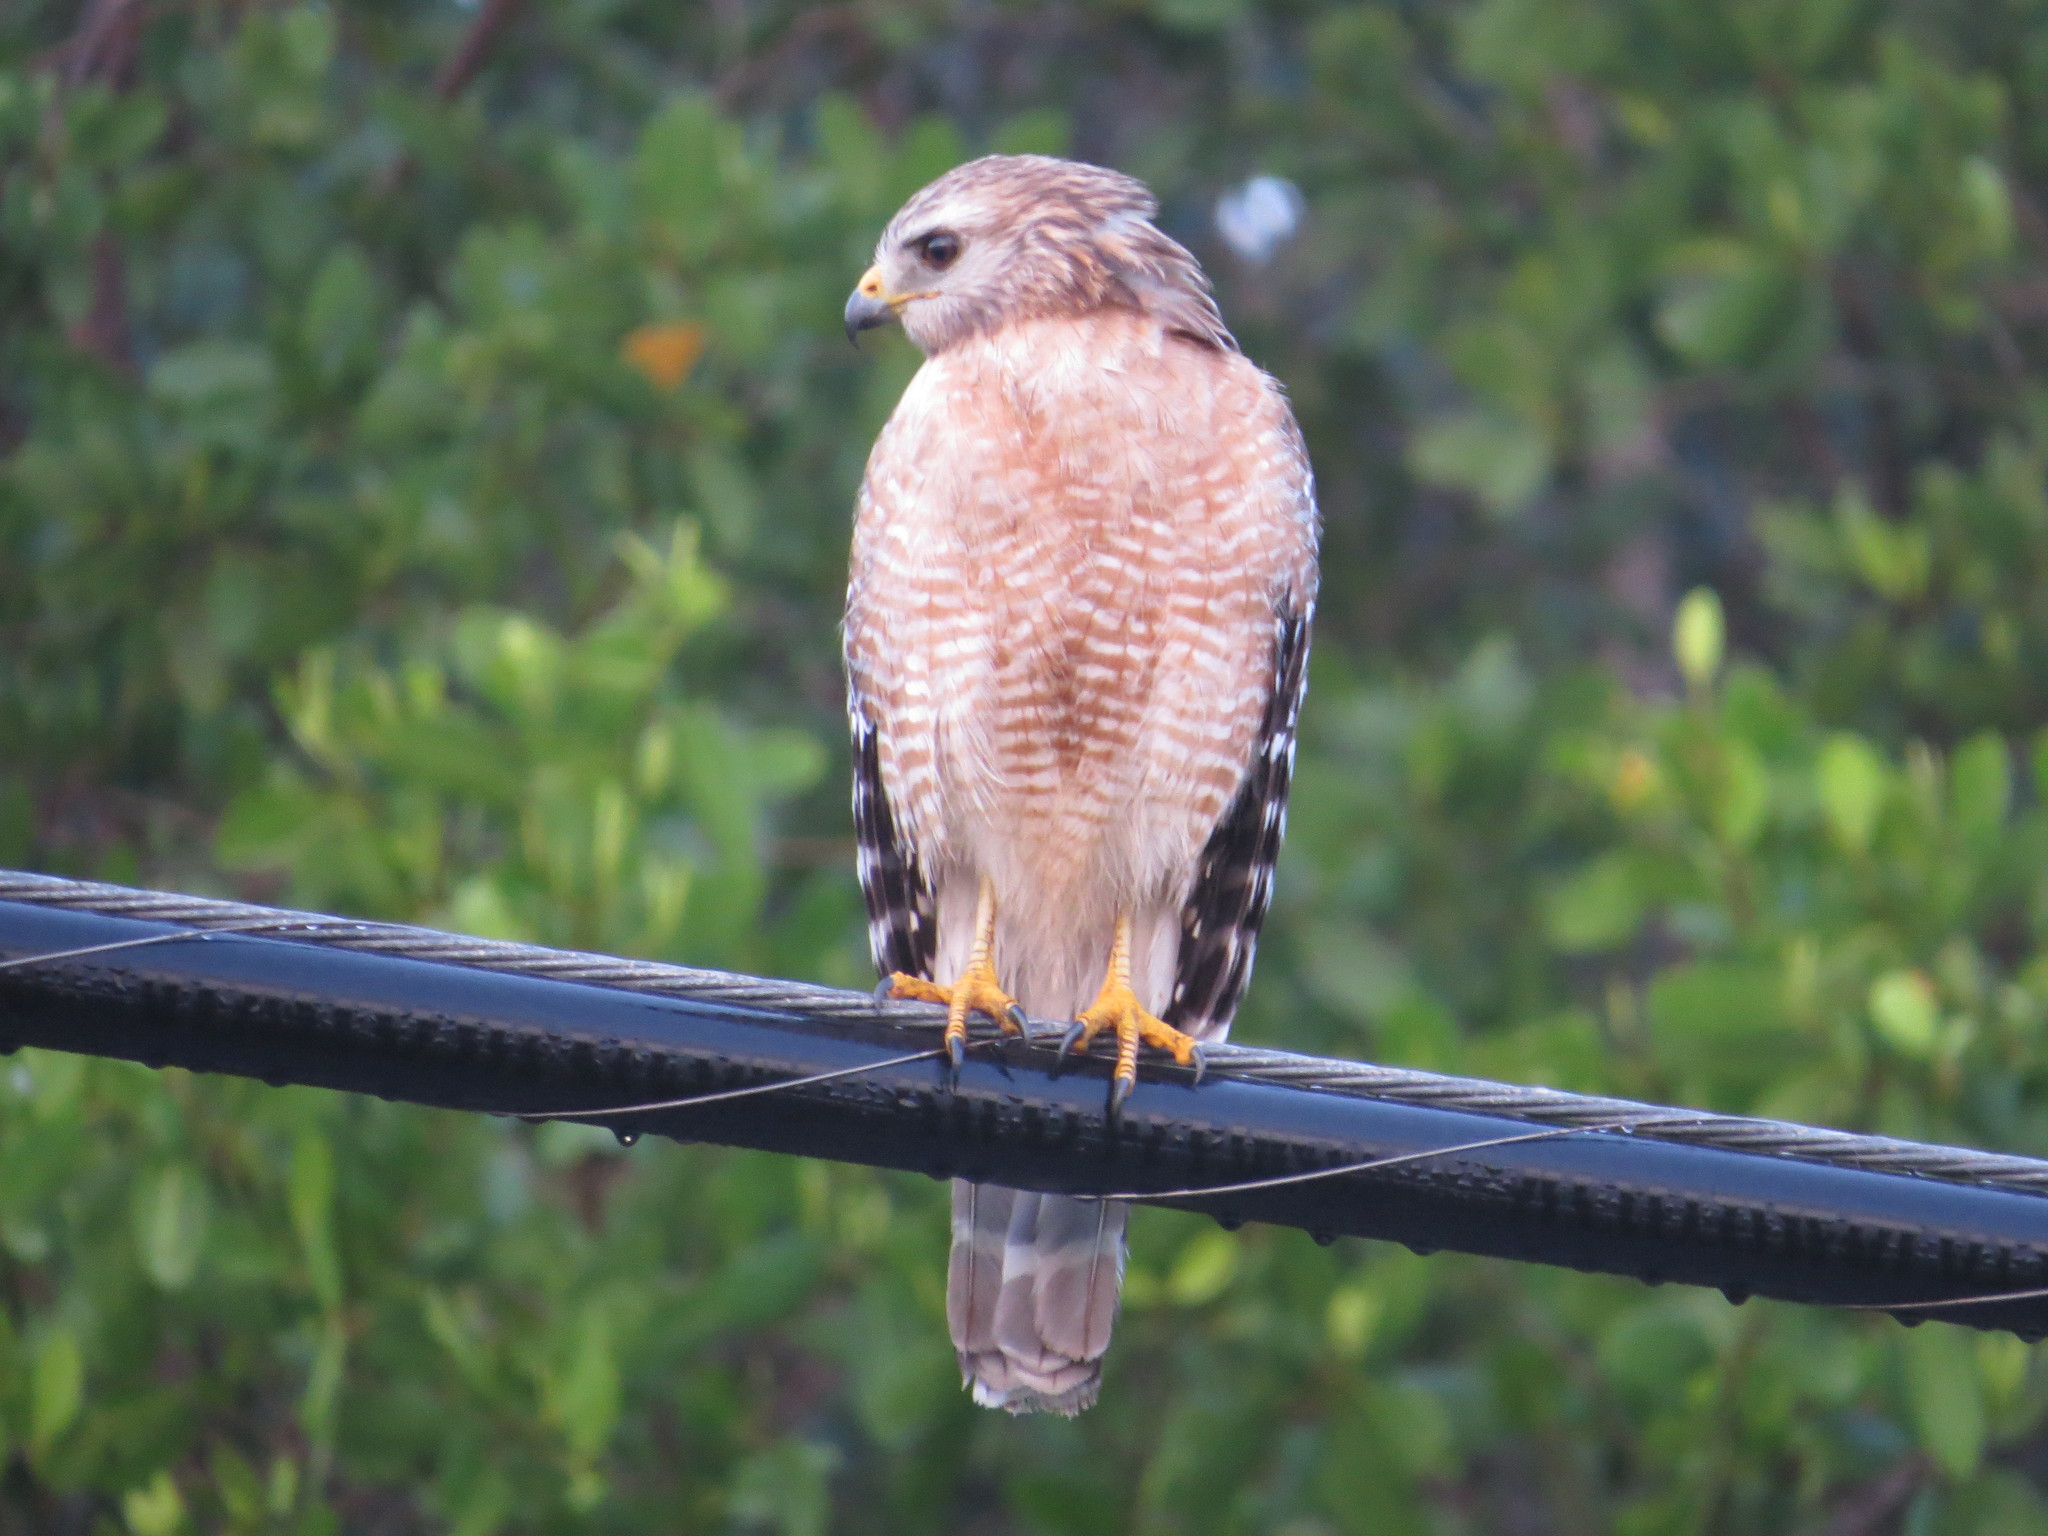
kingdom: Animalia
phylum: Chordata
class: Aves
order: Accipitriformes
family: Accipitridae
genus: Buteo
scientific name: Buteo lineatus
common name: Red-shouldered hawk
